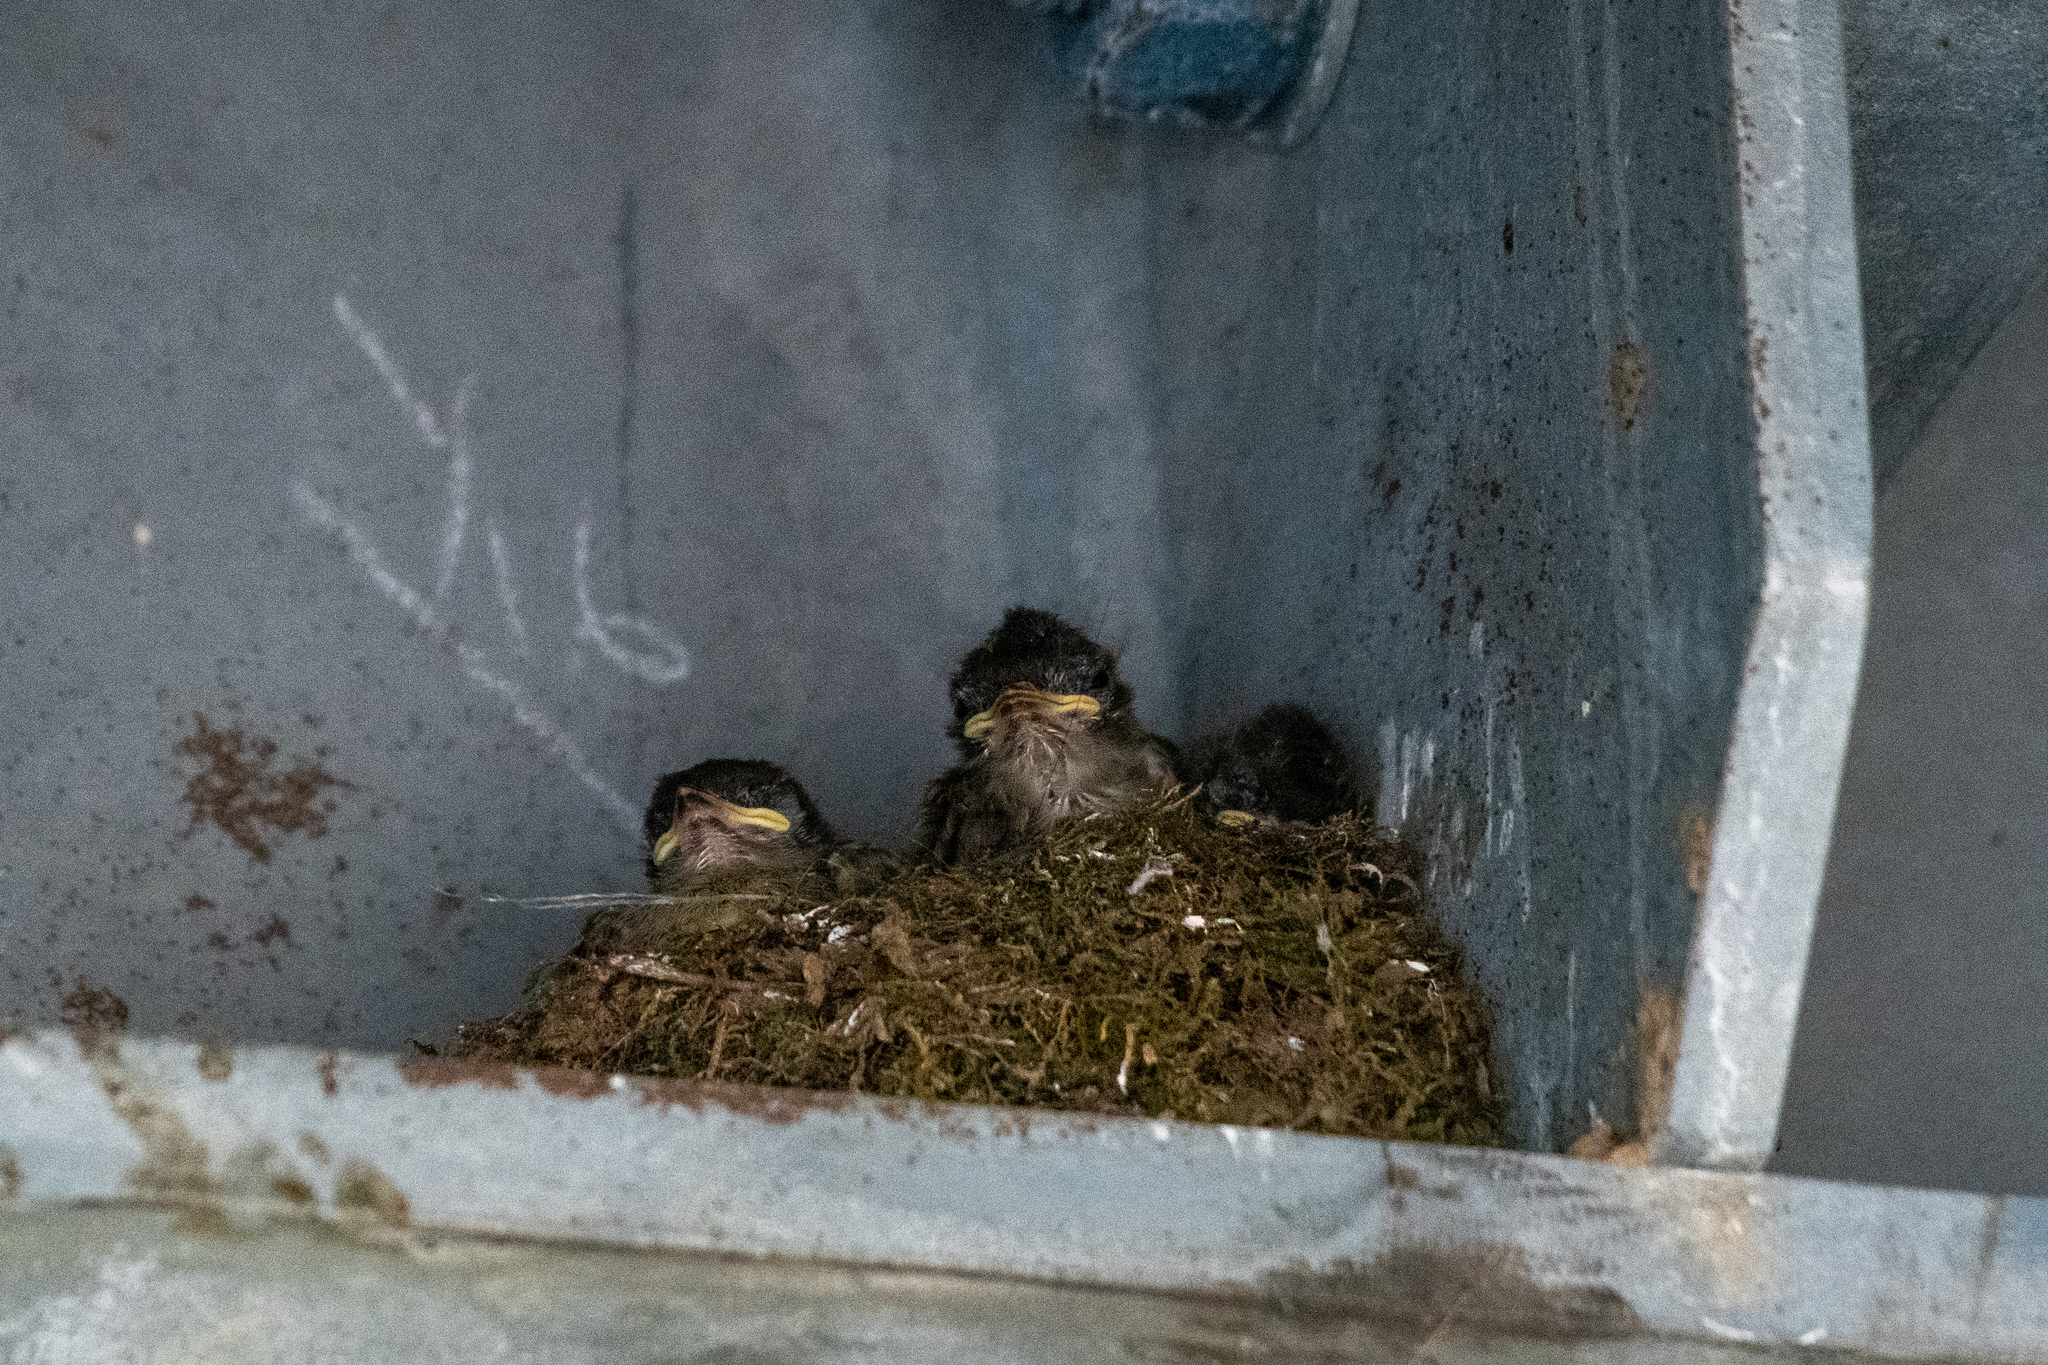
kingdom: Animalia
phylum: Chordata
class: Aves
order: Passeriformes
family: Tyrannidae
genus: Sayornis
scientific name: Sayornis phoebe
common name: Eastern phoebe
